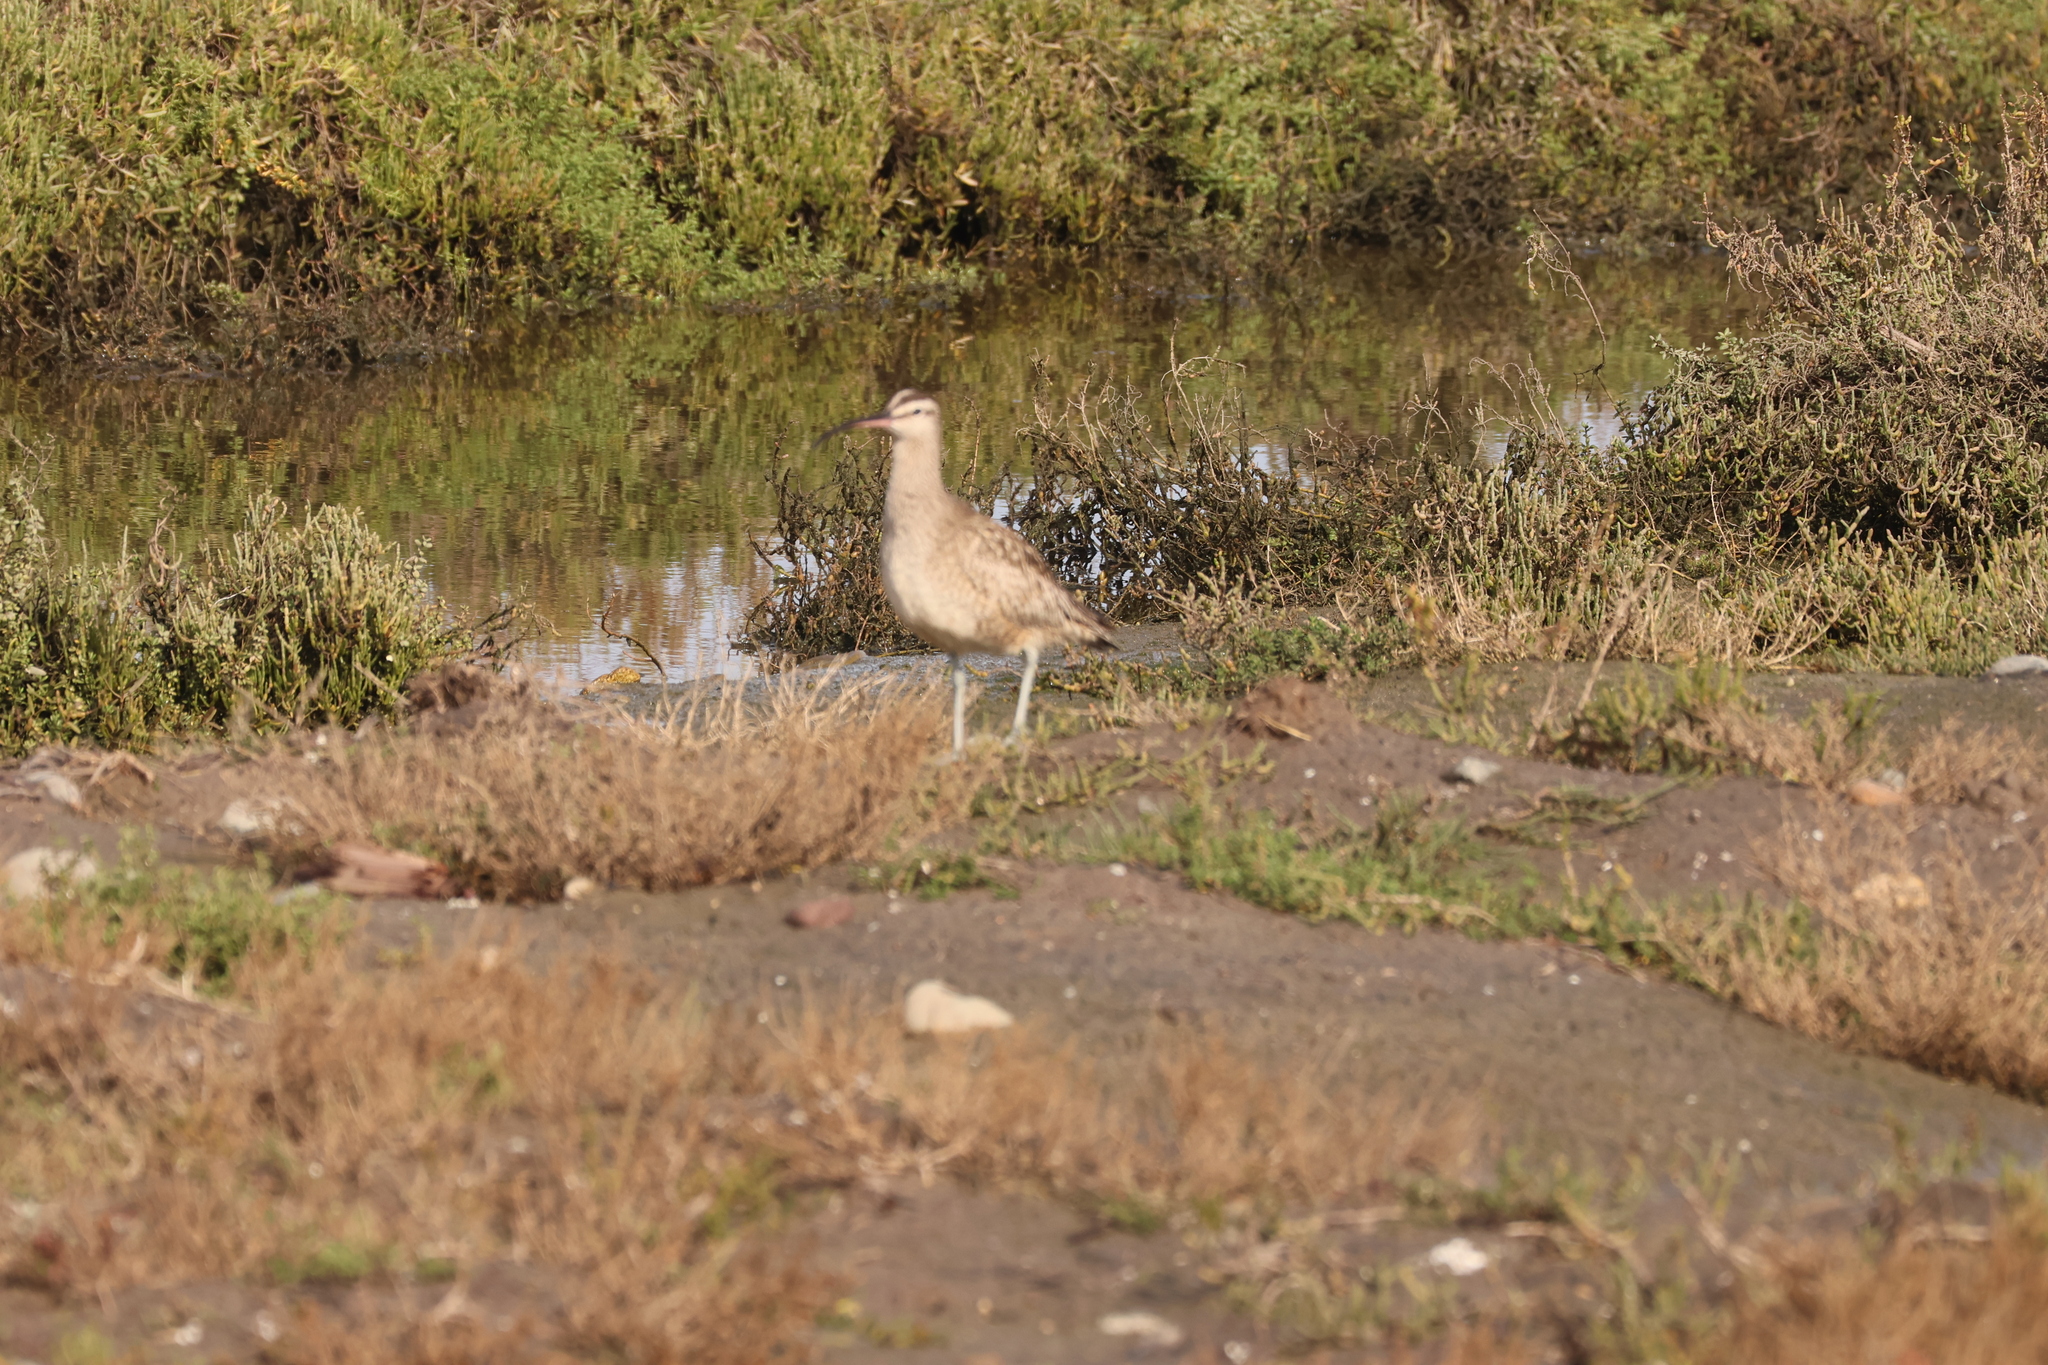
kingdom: Animalia
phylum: Chordata
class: Aves
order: Charadriiformes
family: Scolopacidae
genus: Numenius
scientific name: Numenius phaeopus
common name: Whimbrel
